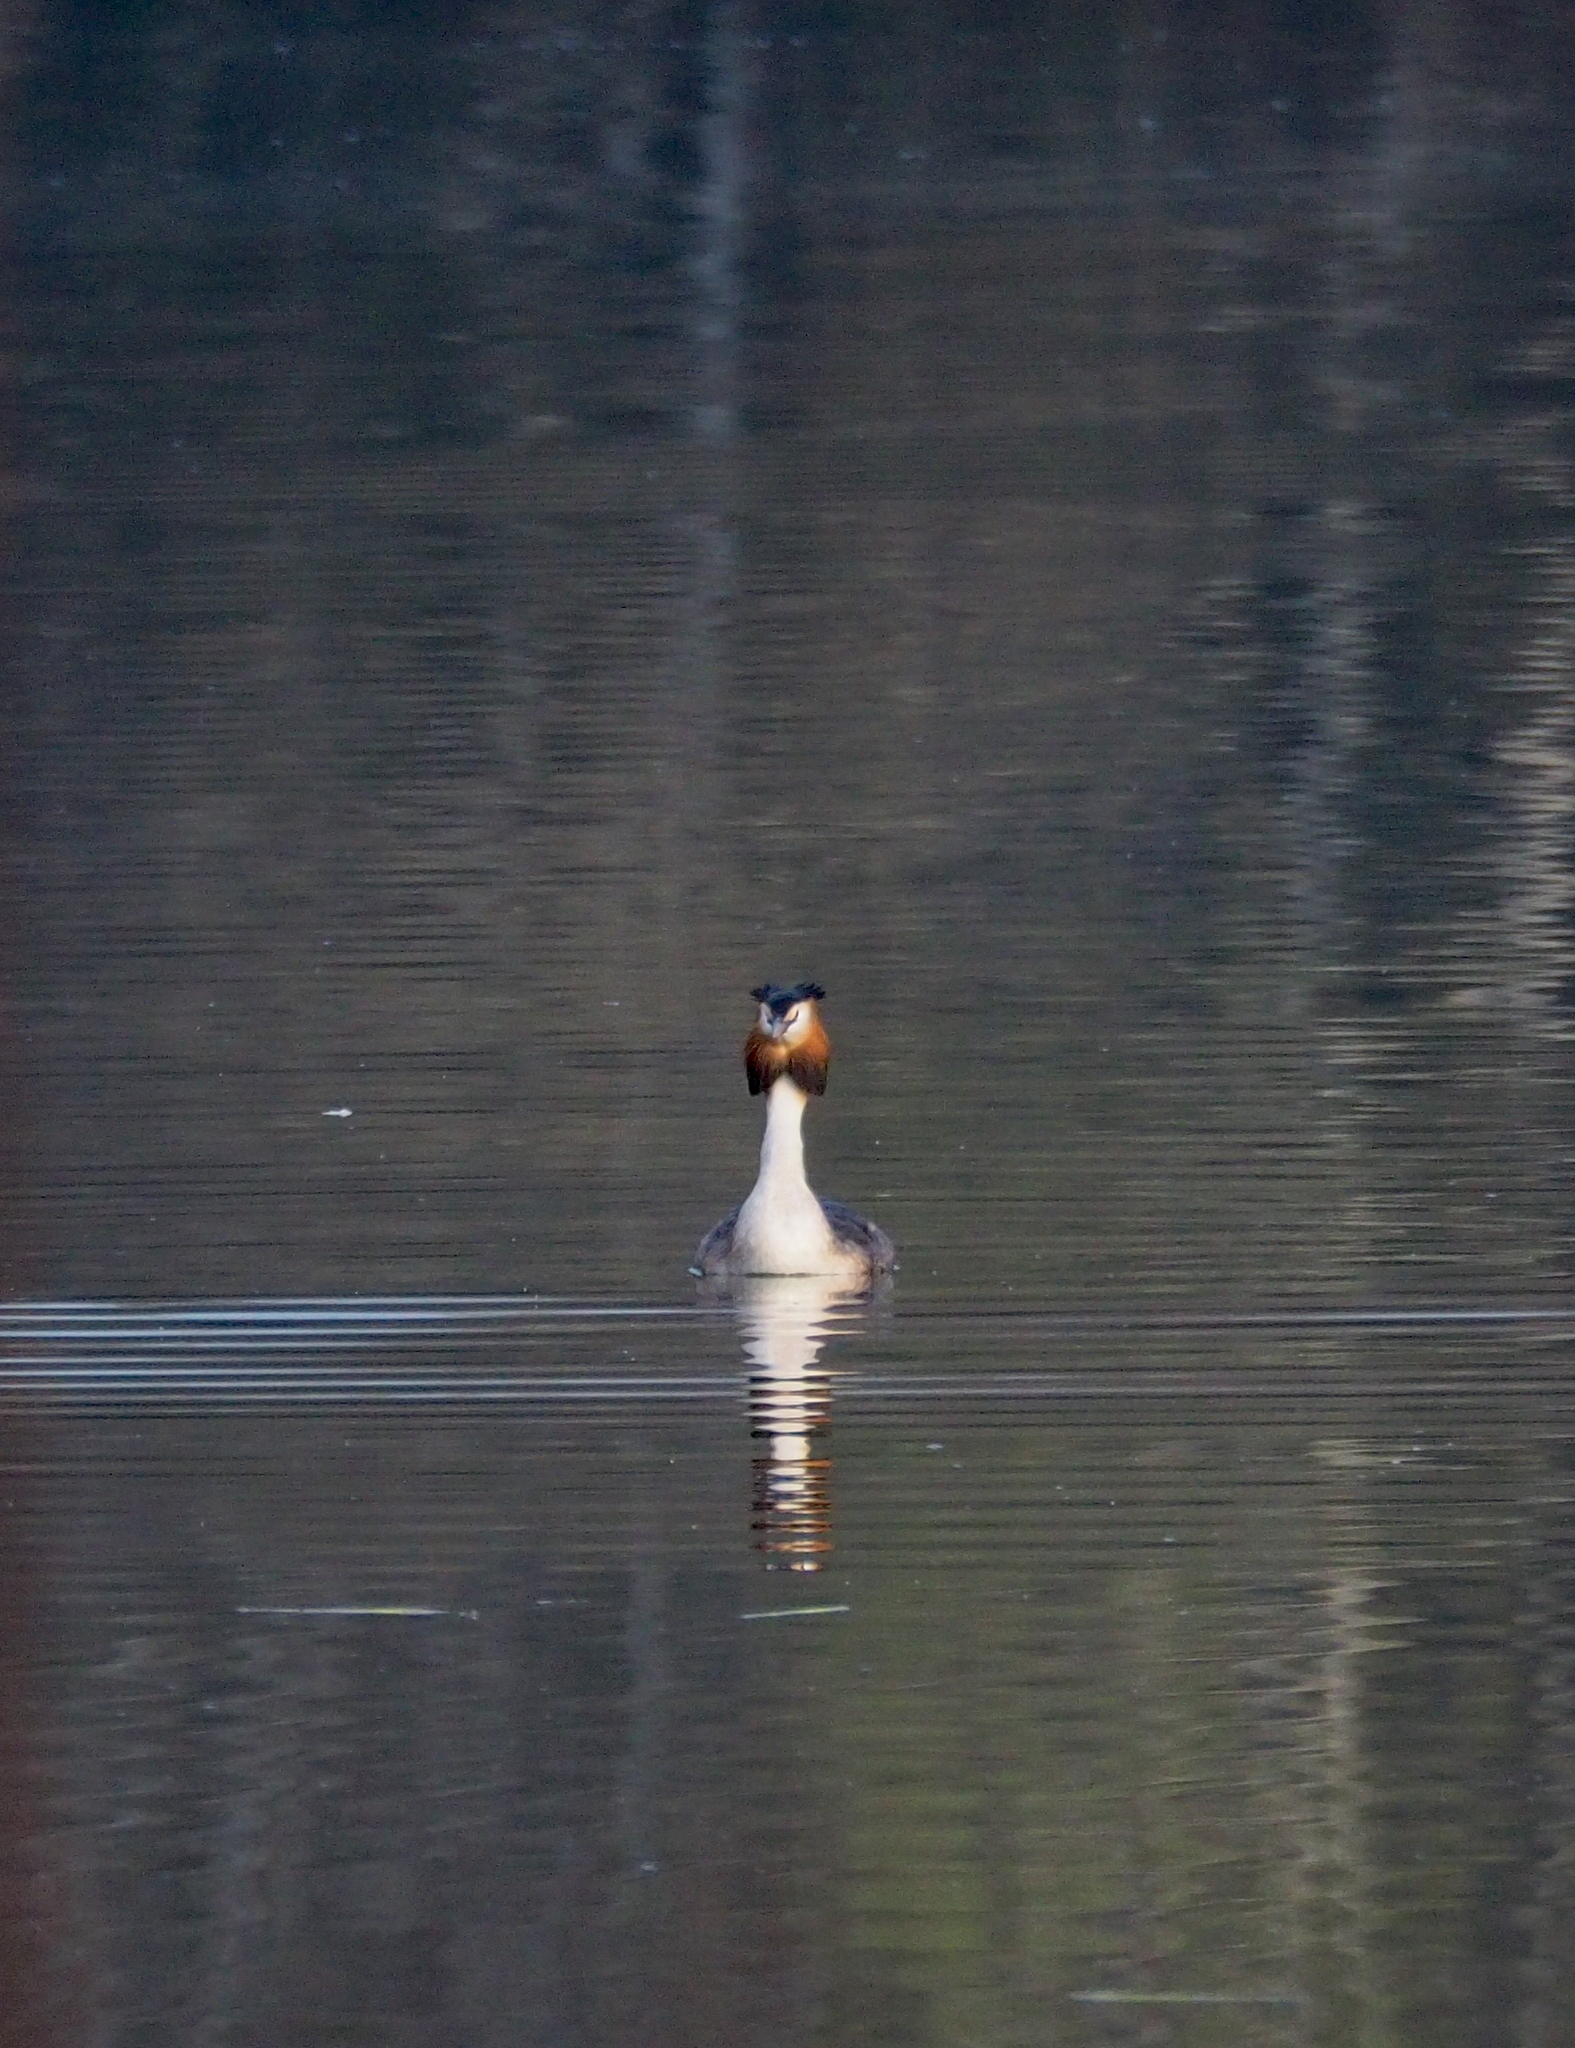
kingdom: Animalia
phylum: Chordata
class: Aves
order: Podicipediformes
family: Podicipedidae
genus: Podiceps
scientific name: Podiceps cristatus
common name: Great crested grebe
